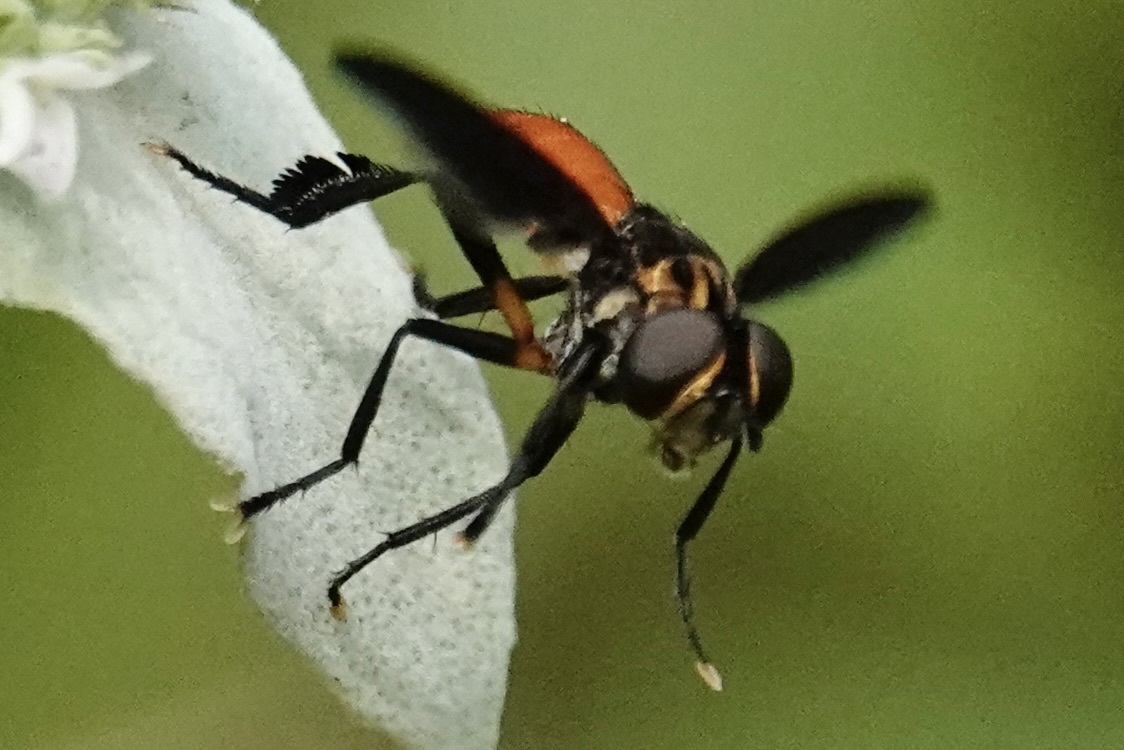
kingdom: Animalia
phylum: Arthropoda
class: Insecta
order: Diptera
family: Tachinidae
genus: Trichopoda
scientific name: Trichopoda pennipes
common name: Tachinid fly
